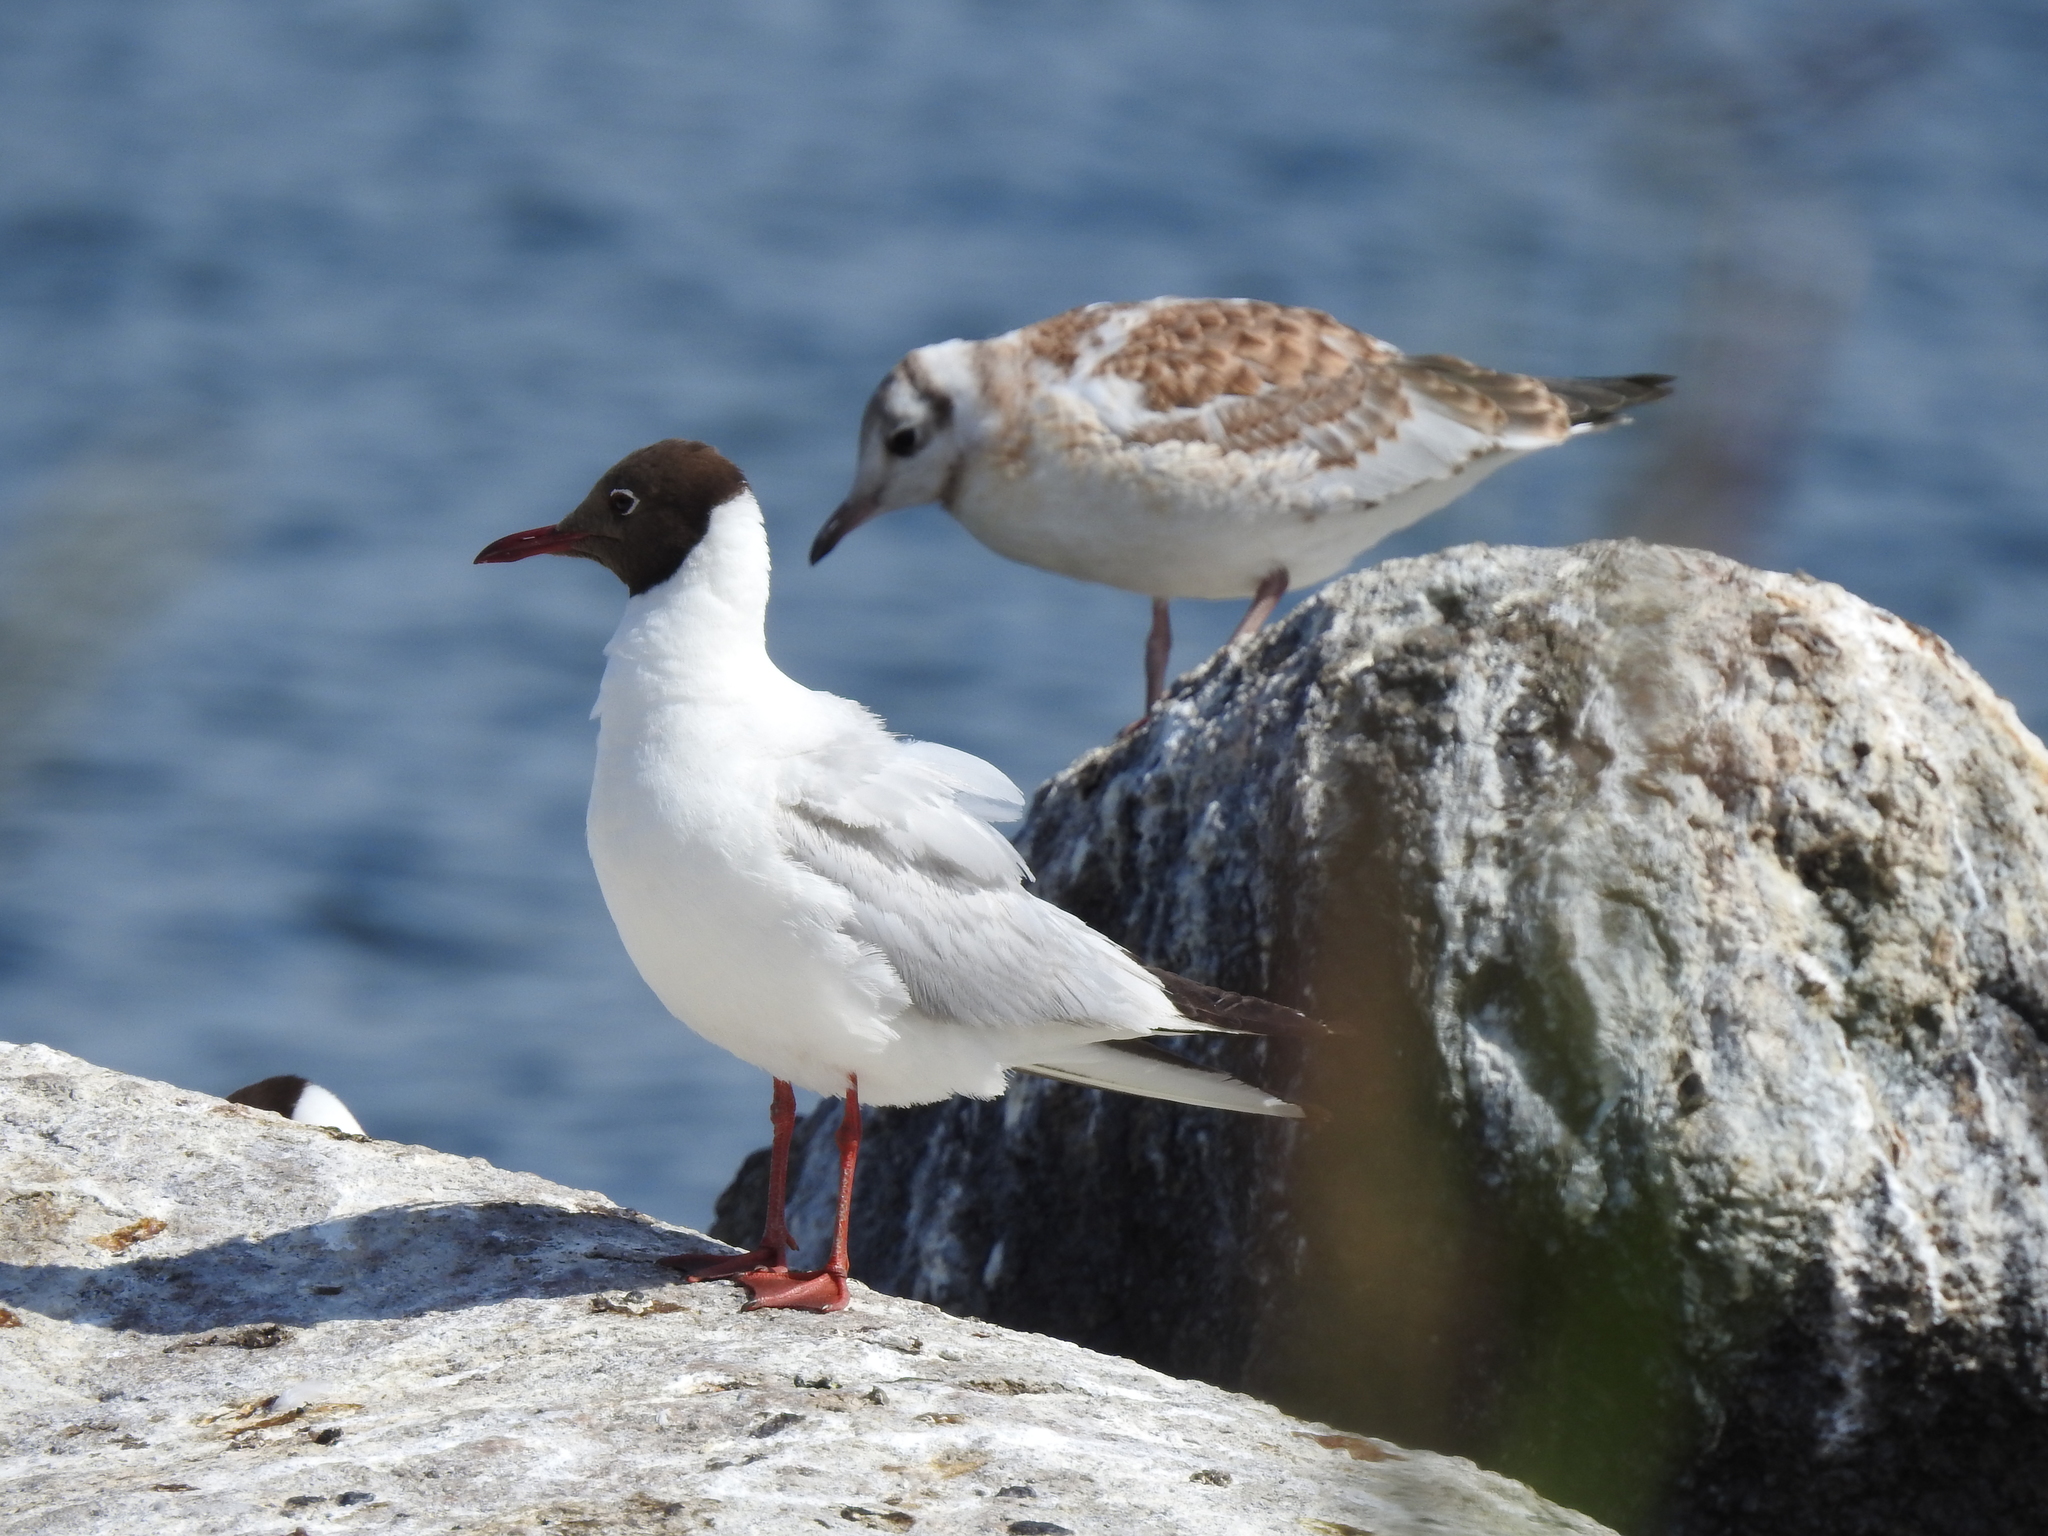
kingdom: Animalia
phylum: Chordata
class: Aves
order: Charadriiformes
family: Laridae
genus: Chroicocephalus
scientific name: Chroicocephalus ridibundus
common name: Black-headed gull
